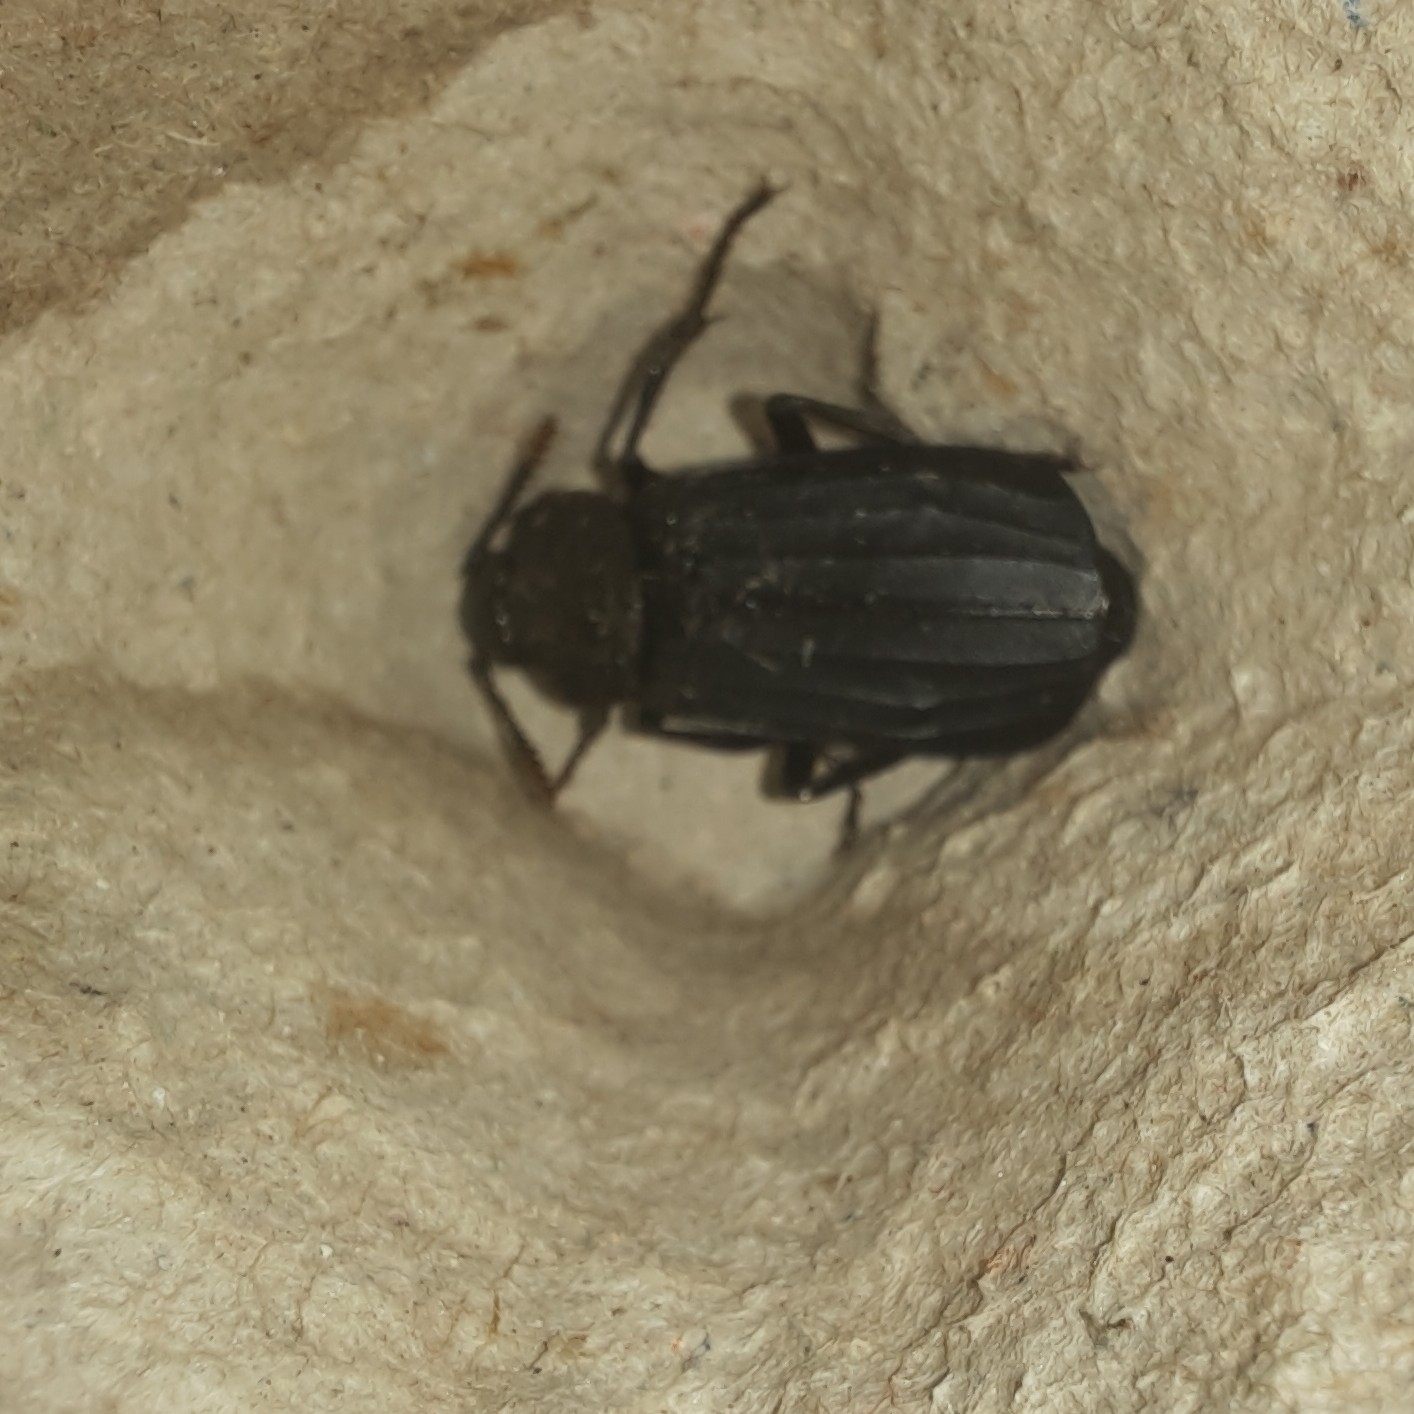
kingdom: Animalia
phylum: Arthropoda
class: Insecta
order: Coleoptera
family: Staphylinidae
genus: Necrodes
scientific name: Necrodes littoralis
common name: Shore sexton beetle
